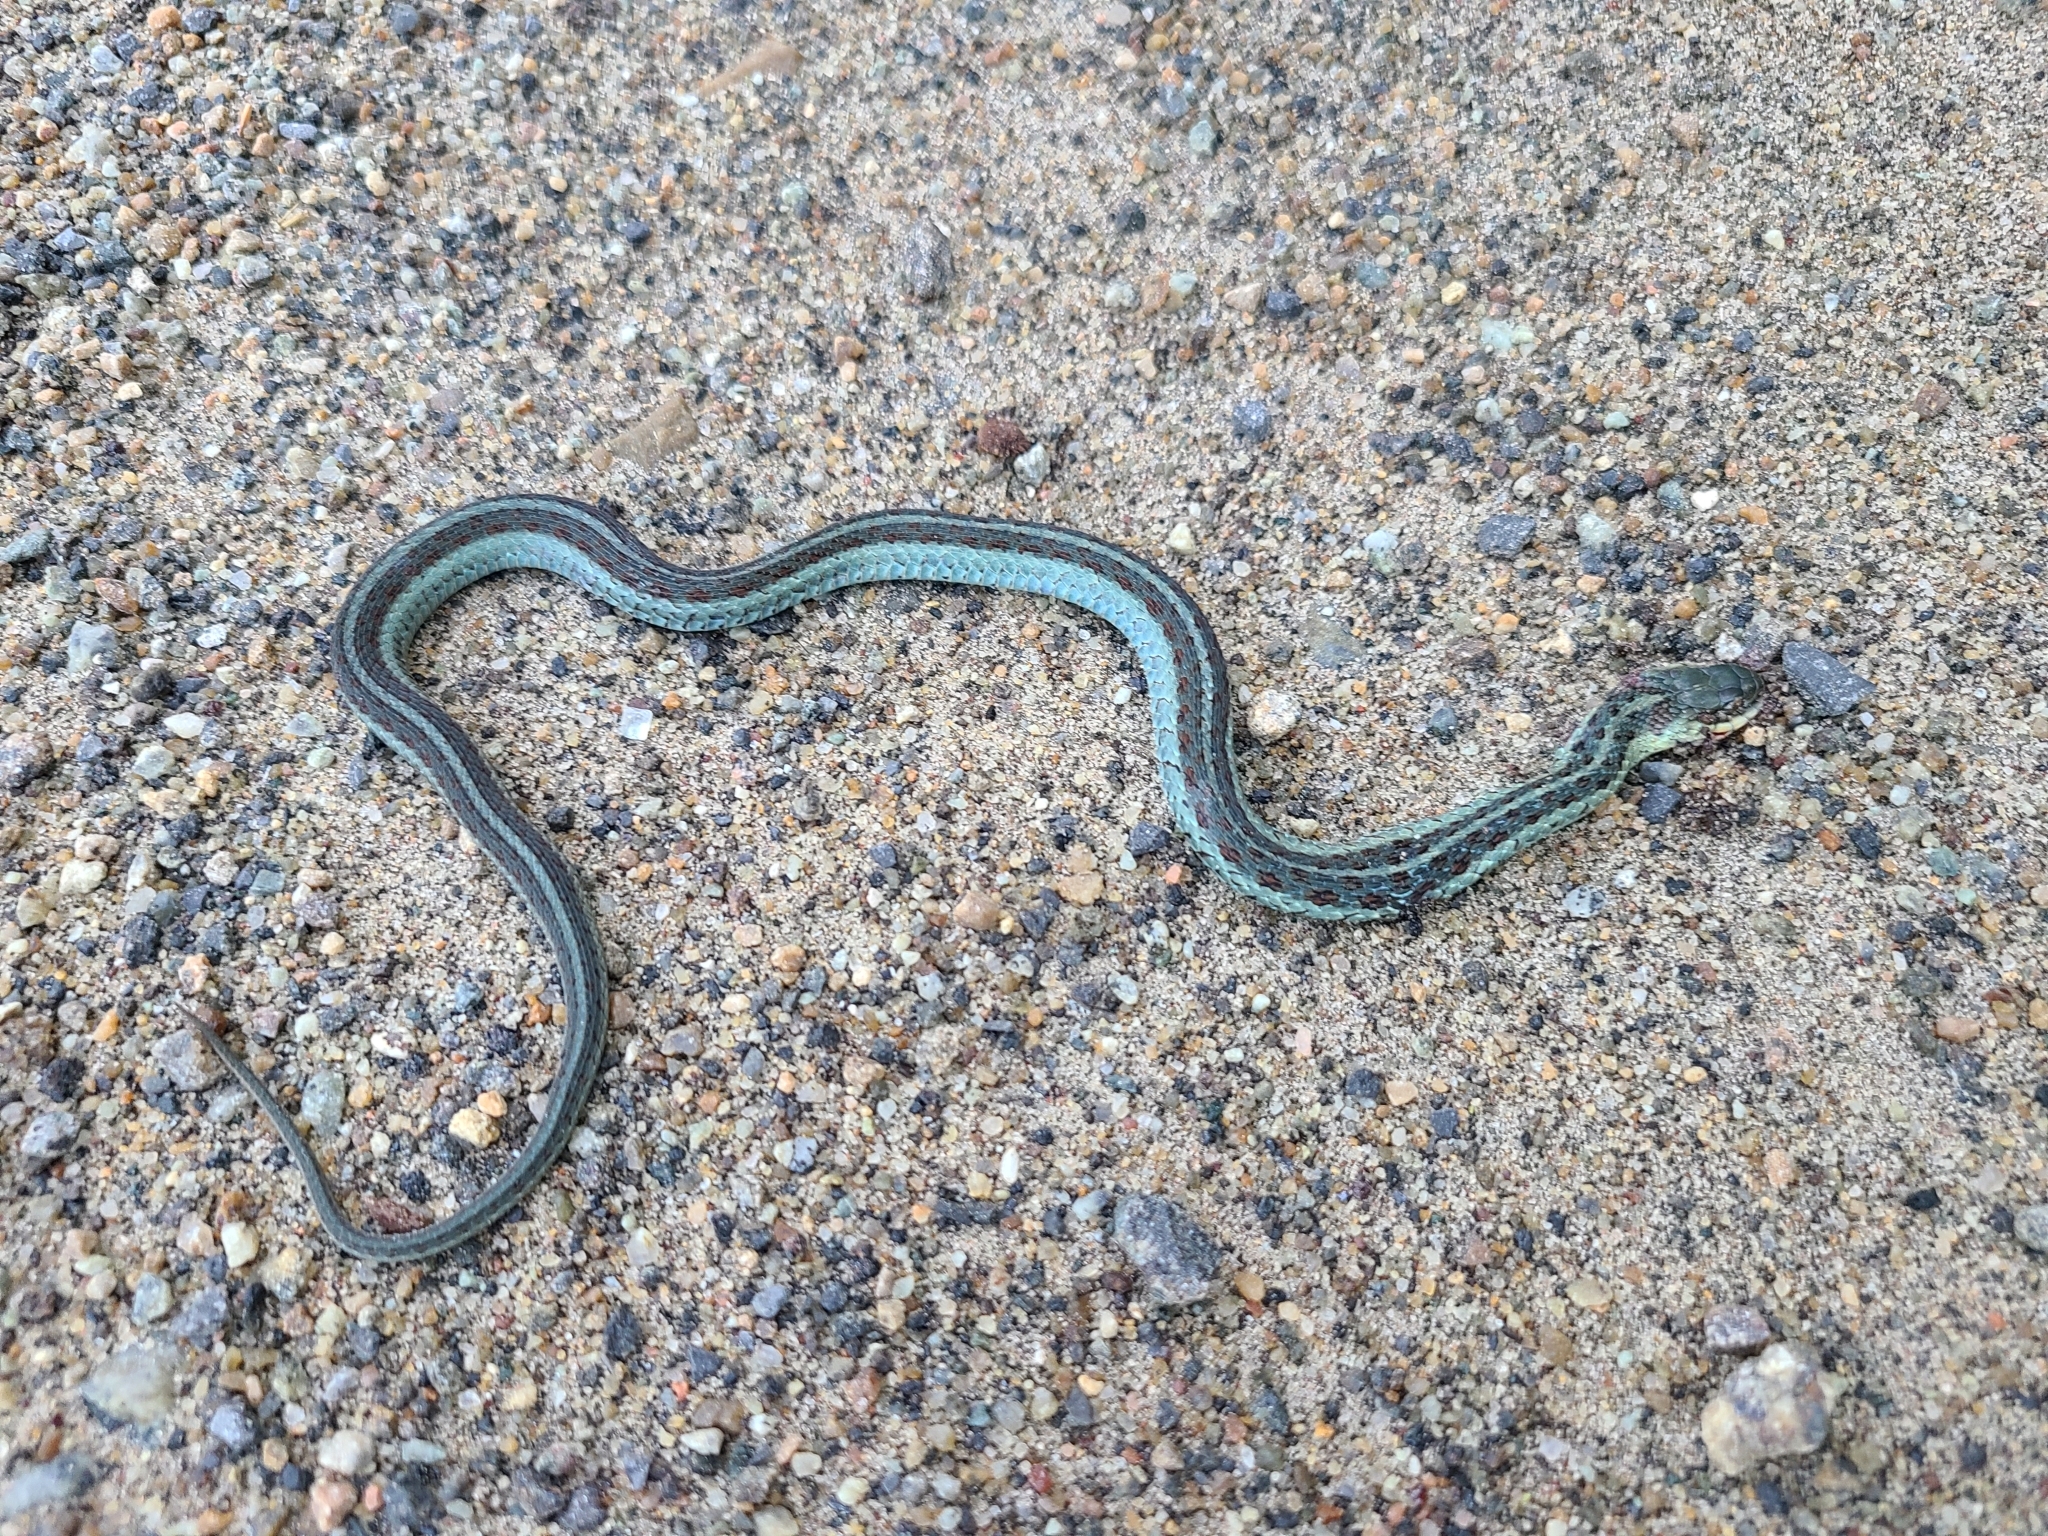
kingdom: Animalia
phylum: Chordata
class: Squamata
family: Colubridae
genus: Thamnophis
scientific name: Thamnophis sirtalis
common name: Common garter snake
